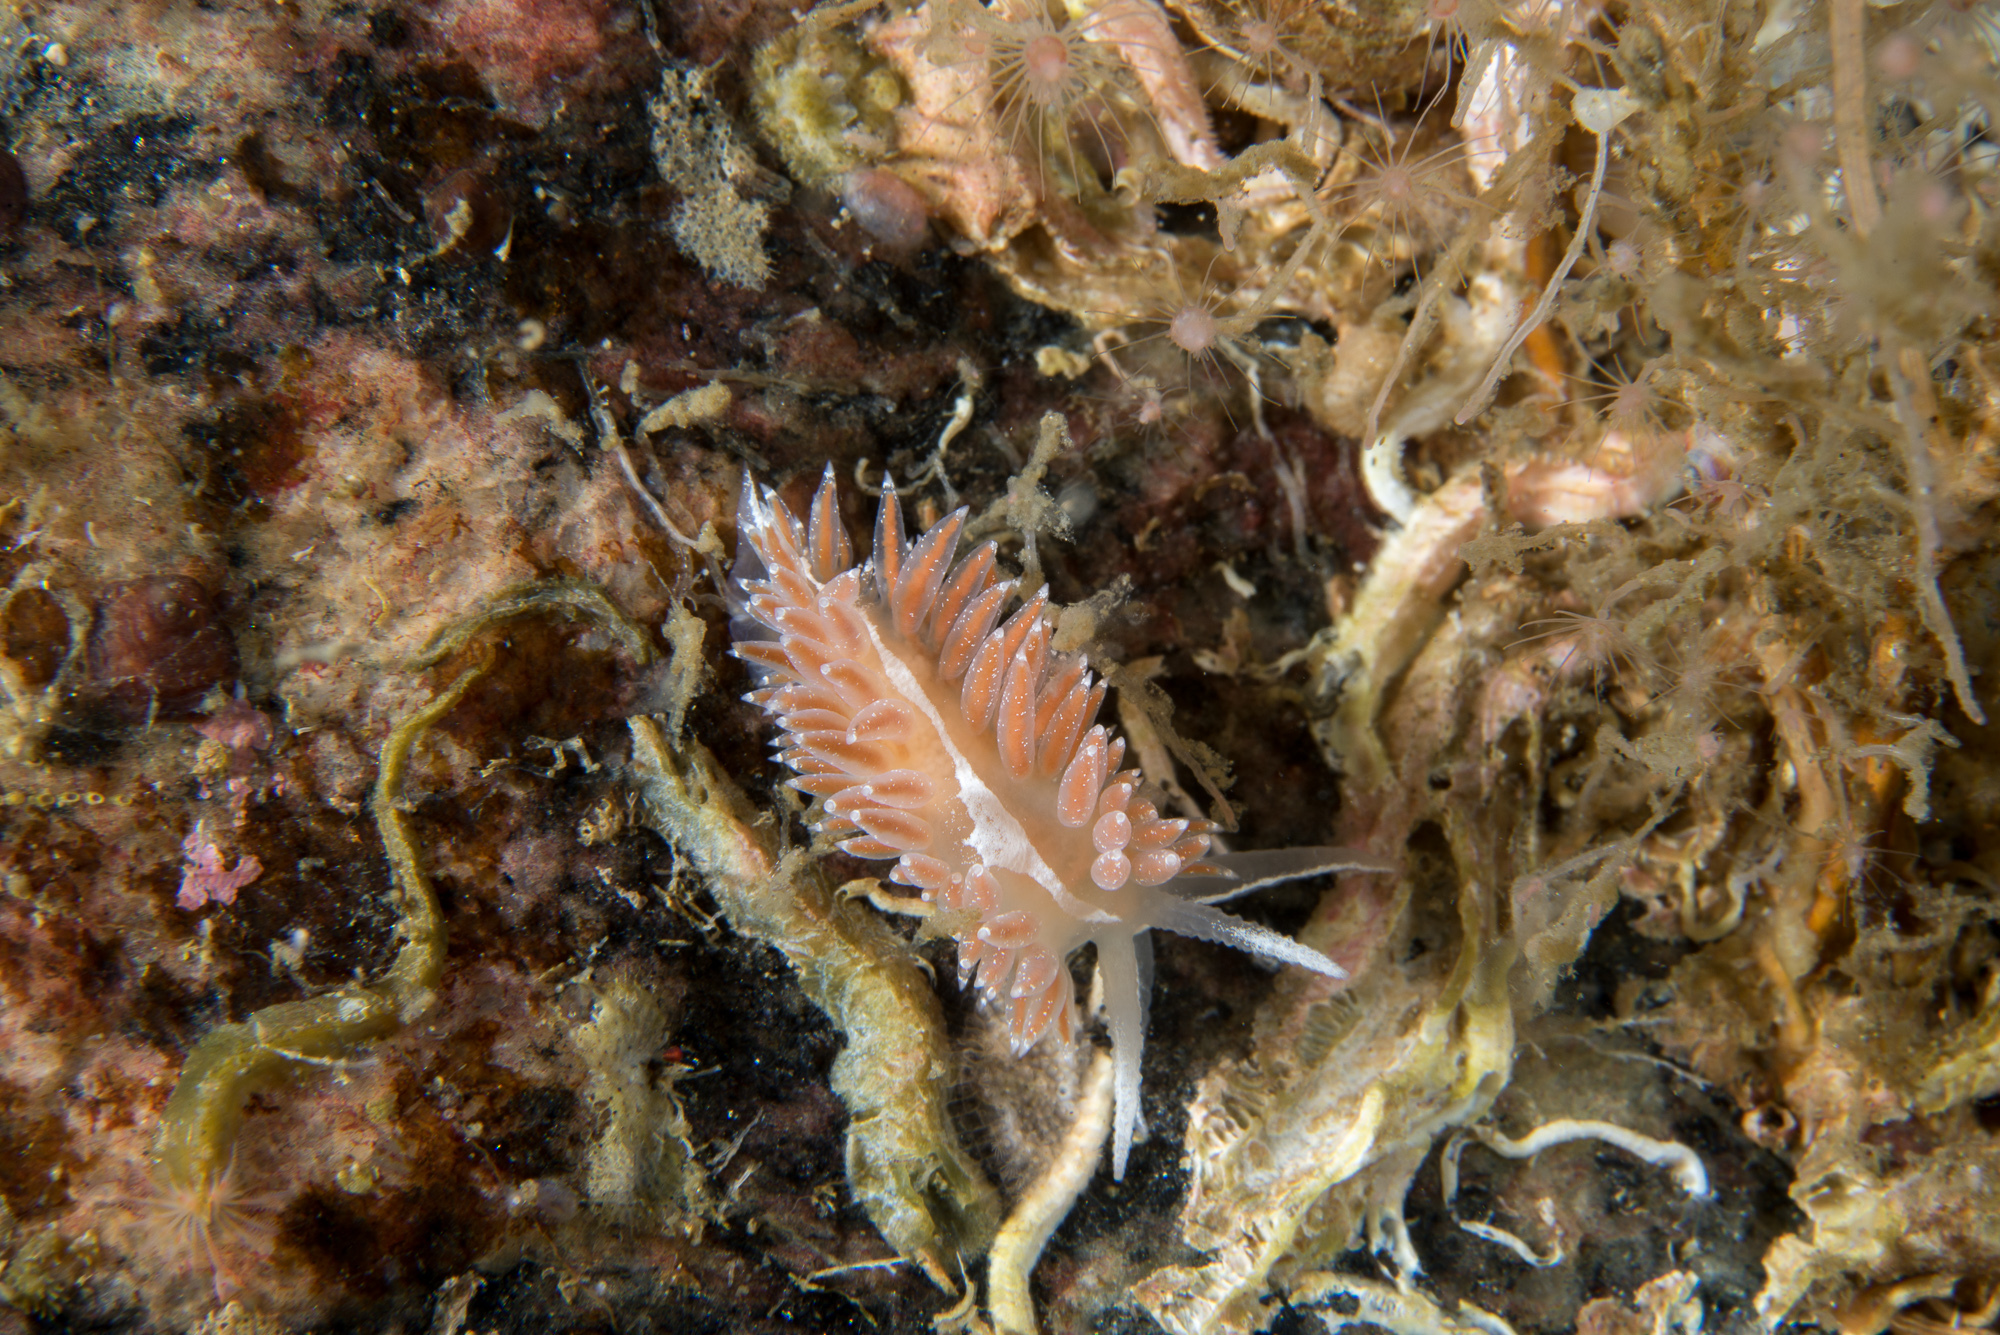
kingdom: Animalia
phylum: Mollusca
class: Gastropoda
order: Nudibranchia
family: Coryphellidae
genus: Coryphella
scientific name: Coryphella orjani
